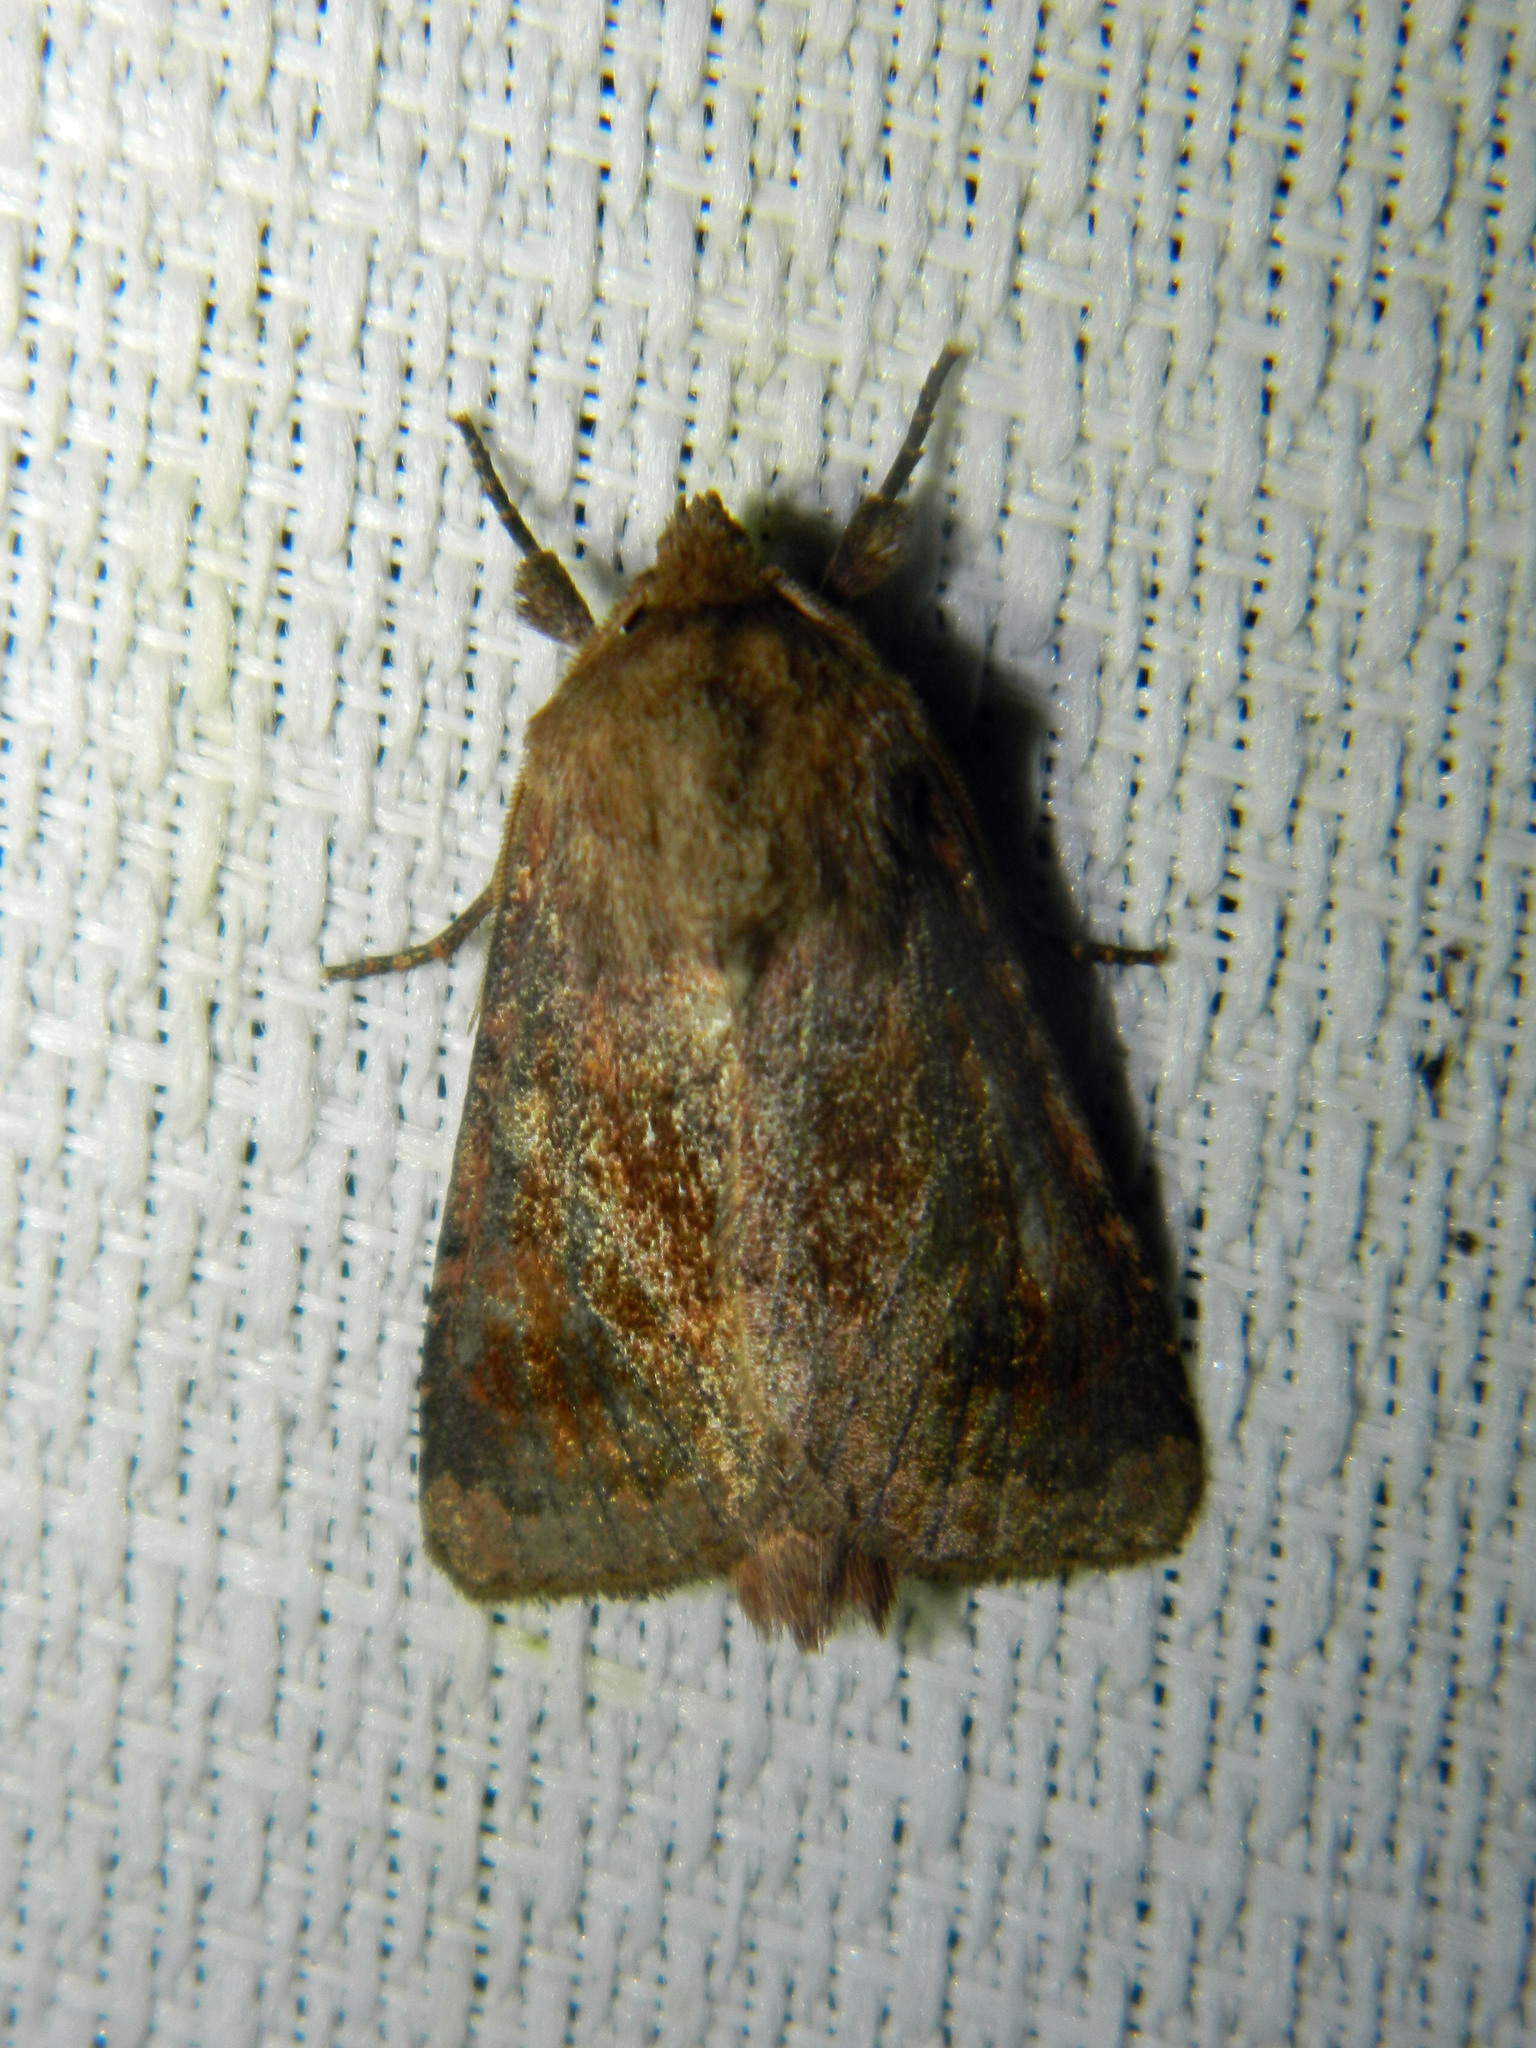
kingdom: Animalia
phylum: Arthropoda
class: Insecta
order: Lepidoptera
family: Noctuidae
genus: Nephelodes
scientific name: Nephelodes minians
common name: Bronzed cutworm
